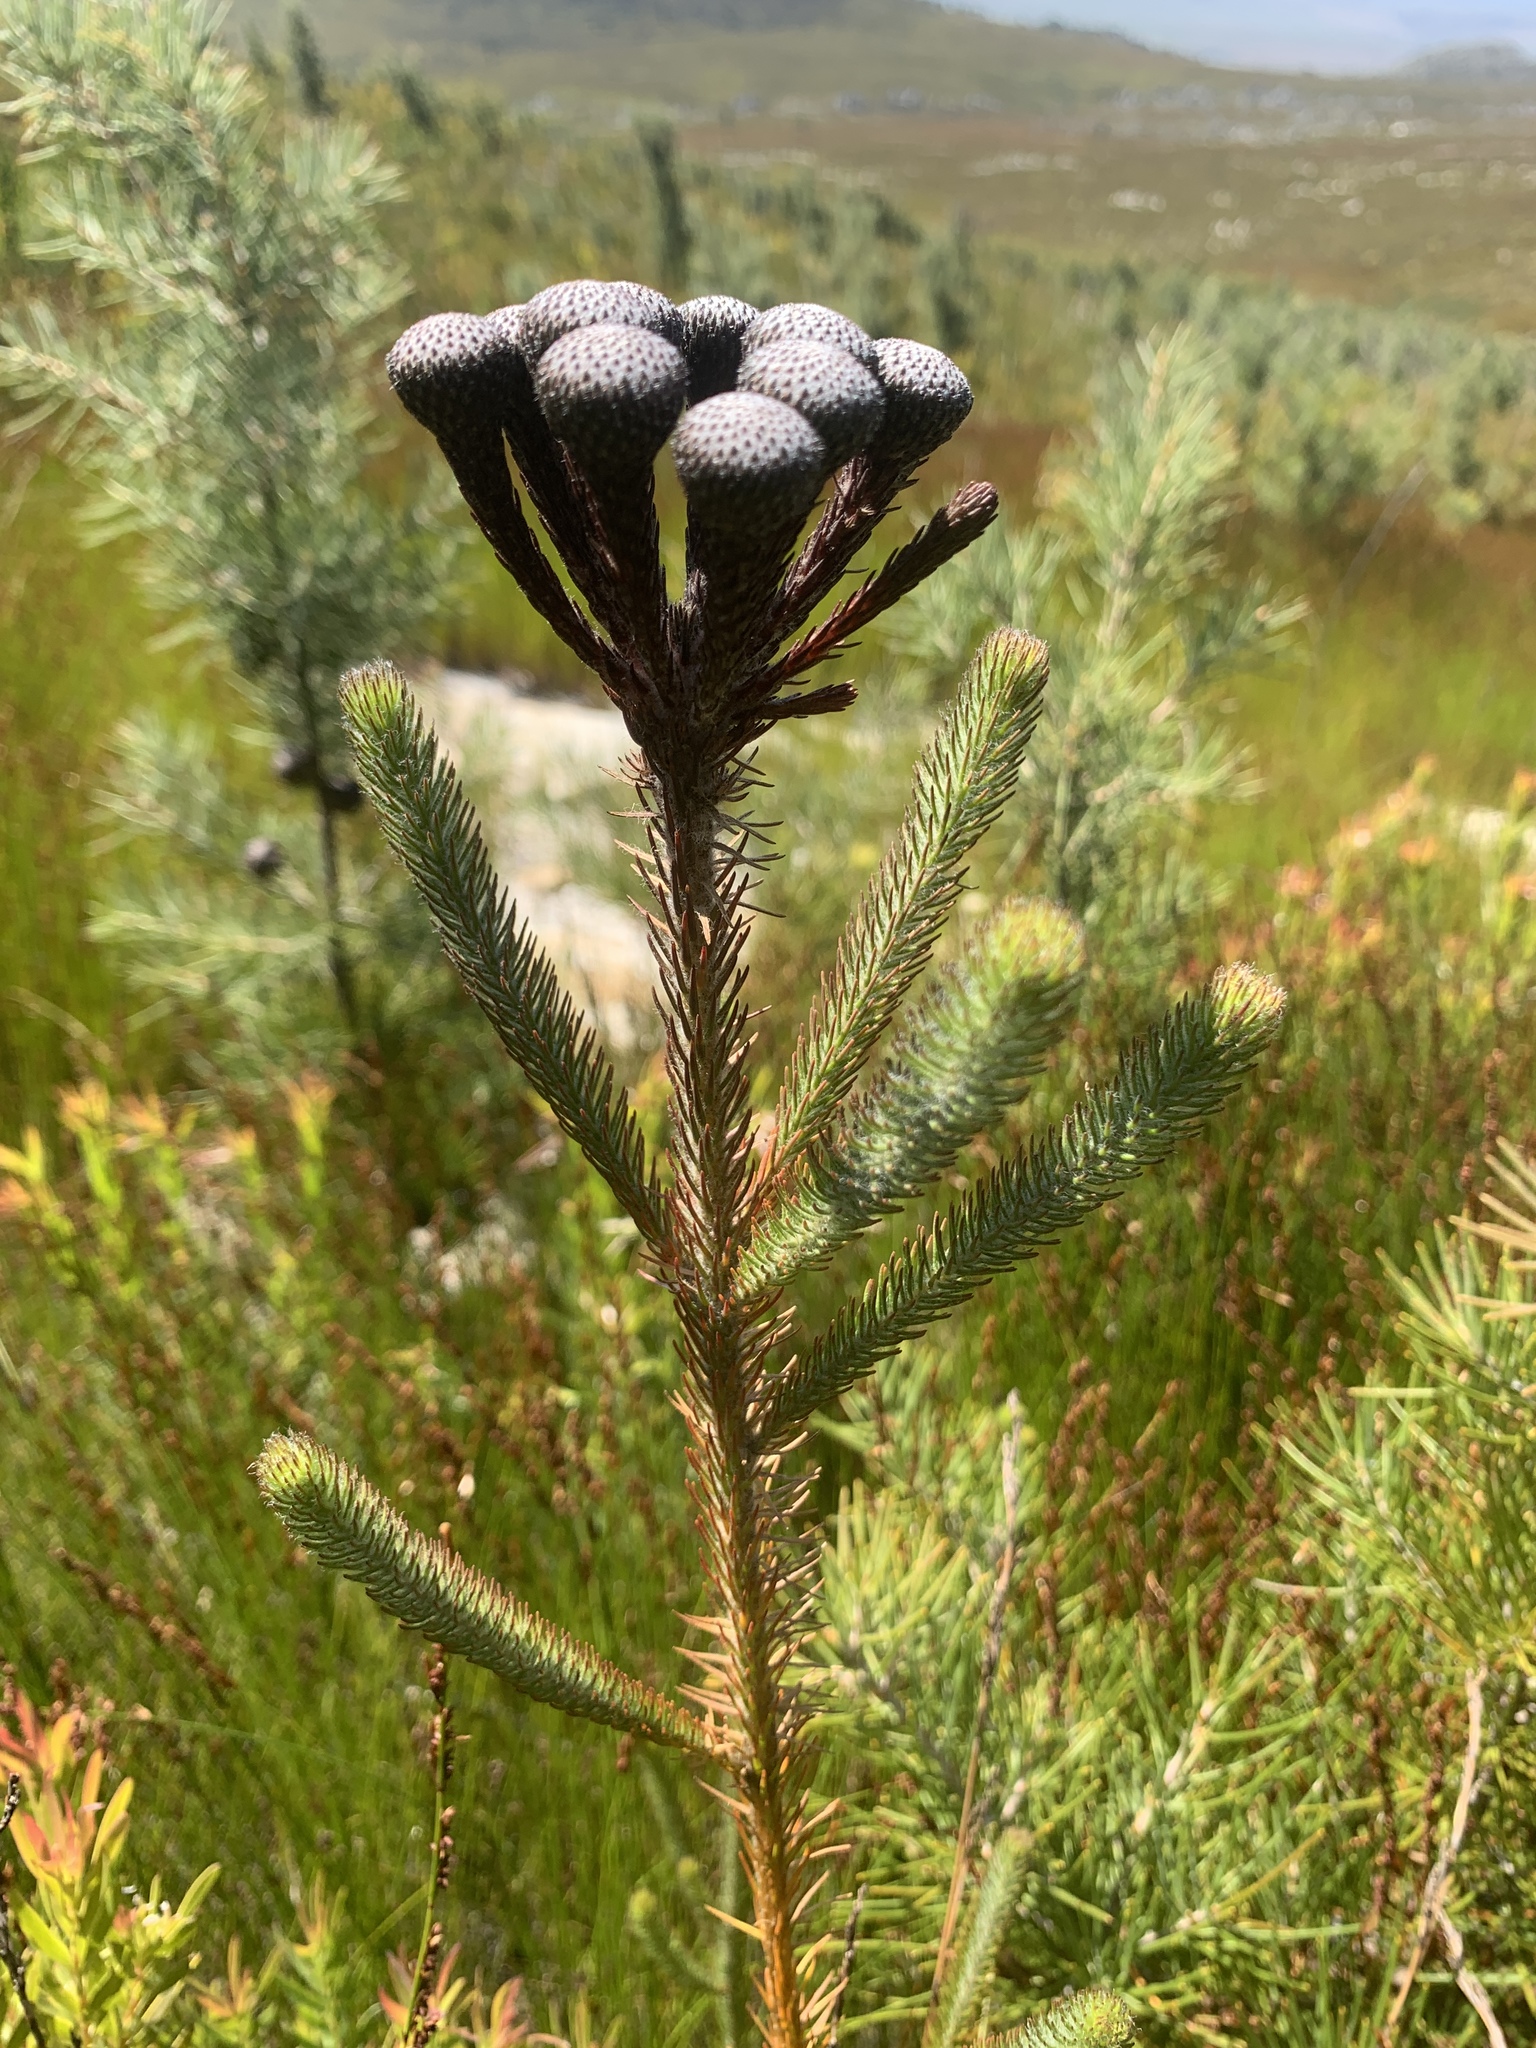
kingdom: Plantae
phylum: Tracheophyta
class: Magnoliopsida
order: Bruniales
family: Bruniaceae
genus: Berzelia
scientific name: Berzelia albiflora
